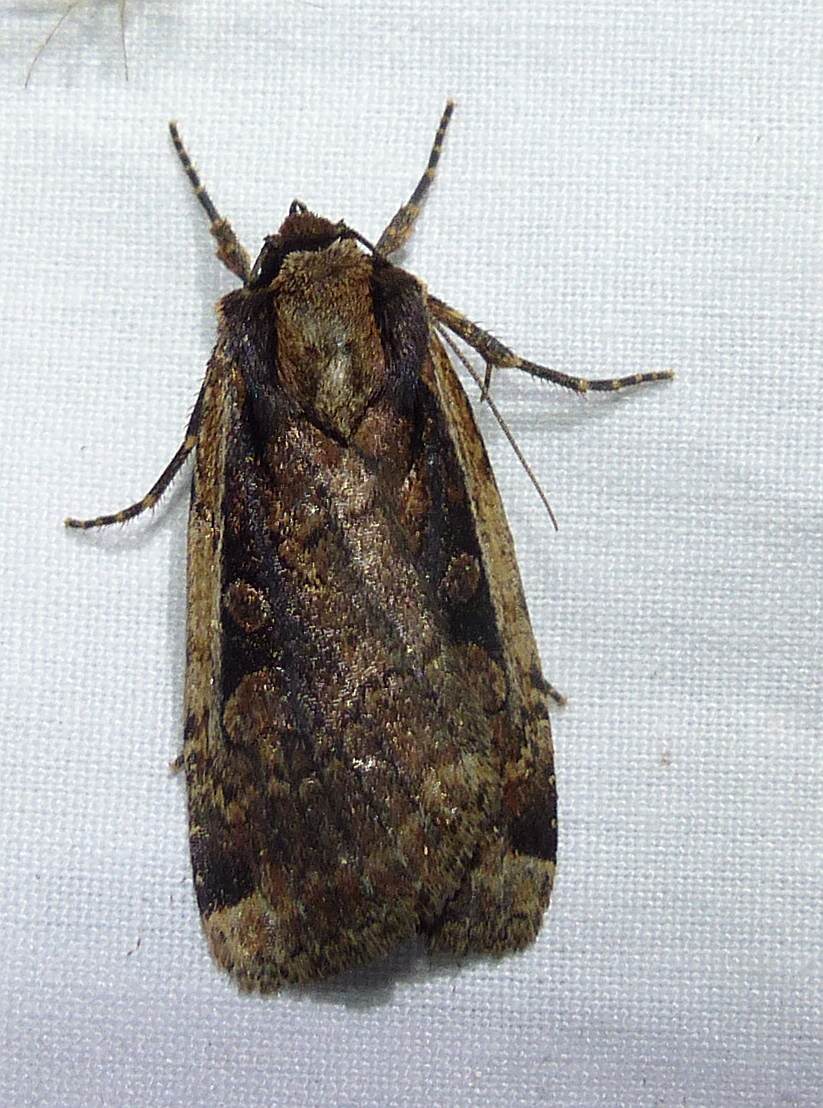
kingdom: Animalia
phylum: Arthropoda
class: Insecta
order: Lepidoptera
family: Noctuidae
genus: Eueretagrotis
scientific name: Eueretagrotis sigmoides
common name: Sigmoid dart
